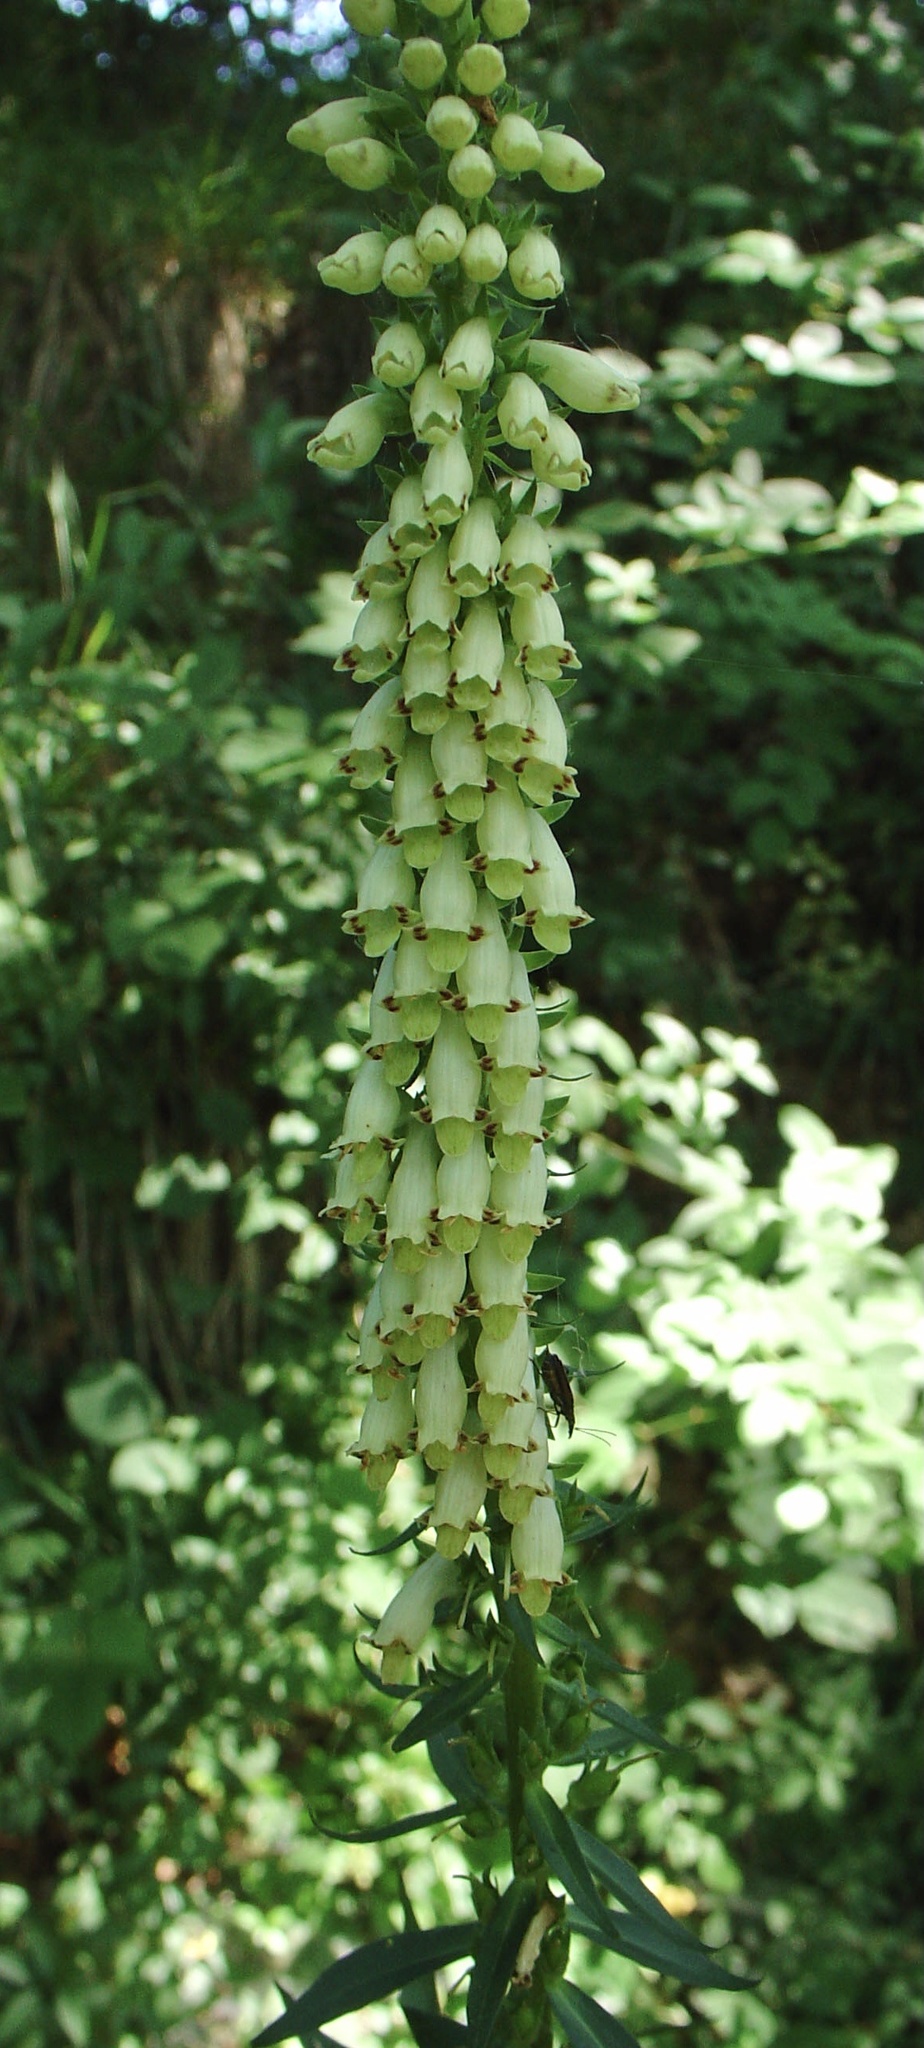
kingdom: Plantae
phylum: Tracheophyta
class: Magnoliopsida
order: Lamiales
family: Plantaginaceae
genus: Digitalis
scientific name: Digitalis lutea
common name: Straw foxglove
